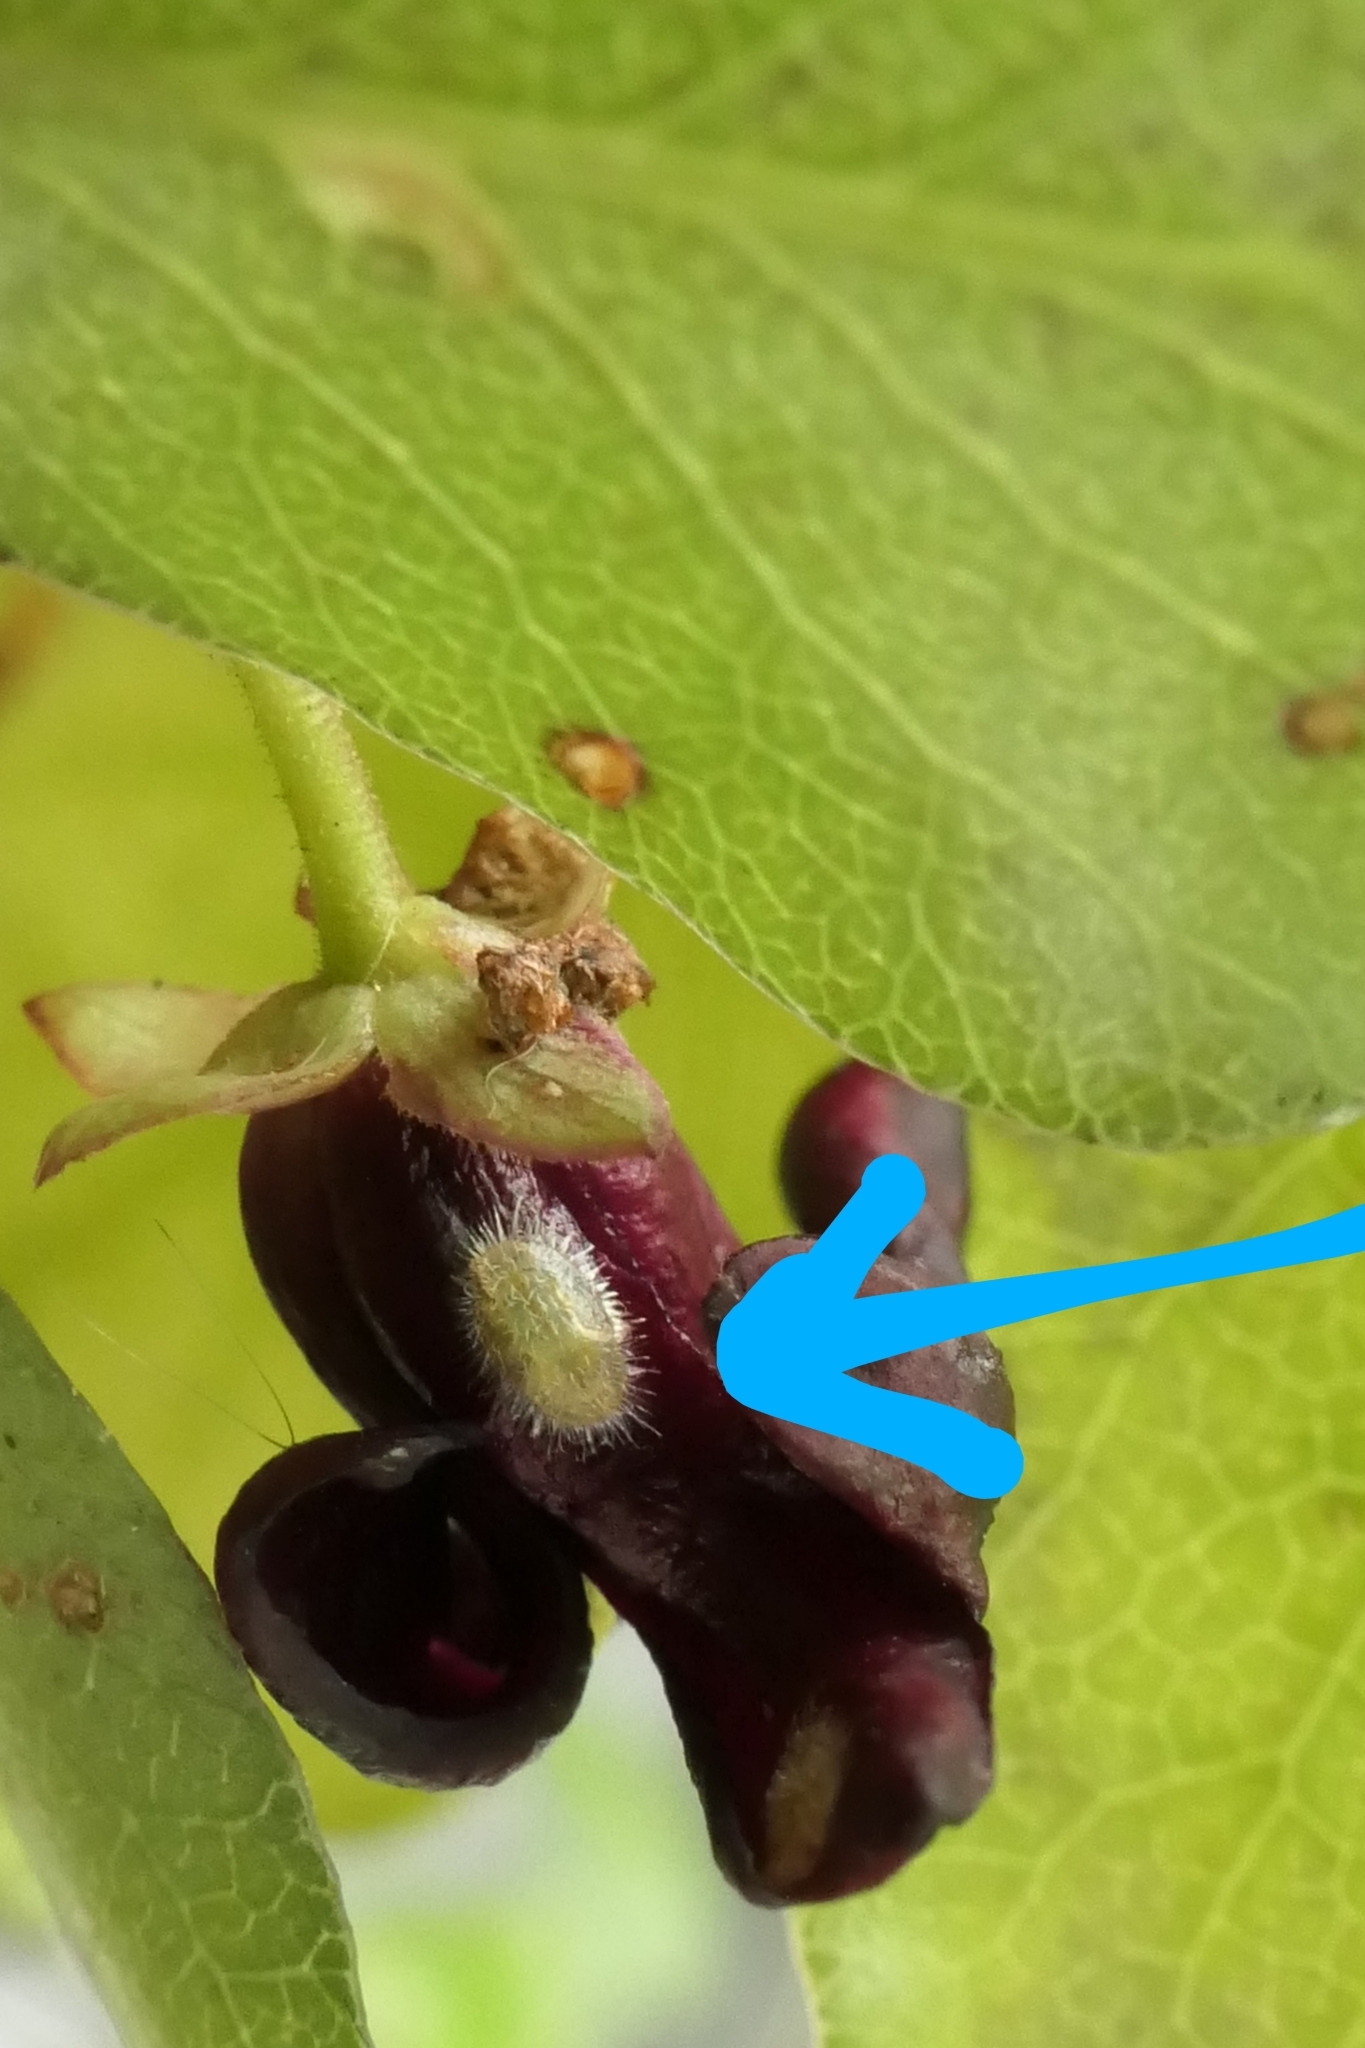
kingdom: Animalia
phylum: Arthropoda
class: Insecta
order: Hemiptera
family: Triozidae
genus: Powellia
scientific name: Powellia vitreoradiata
